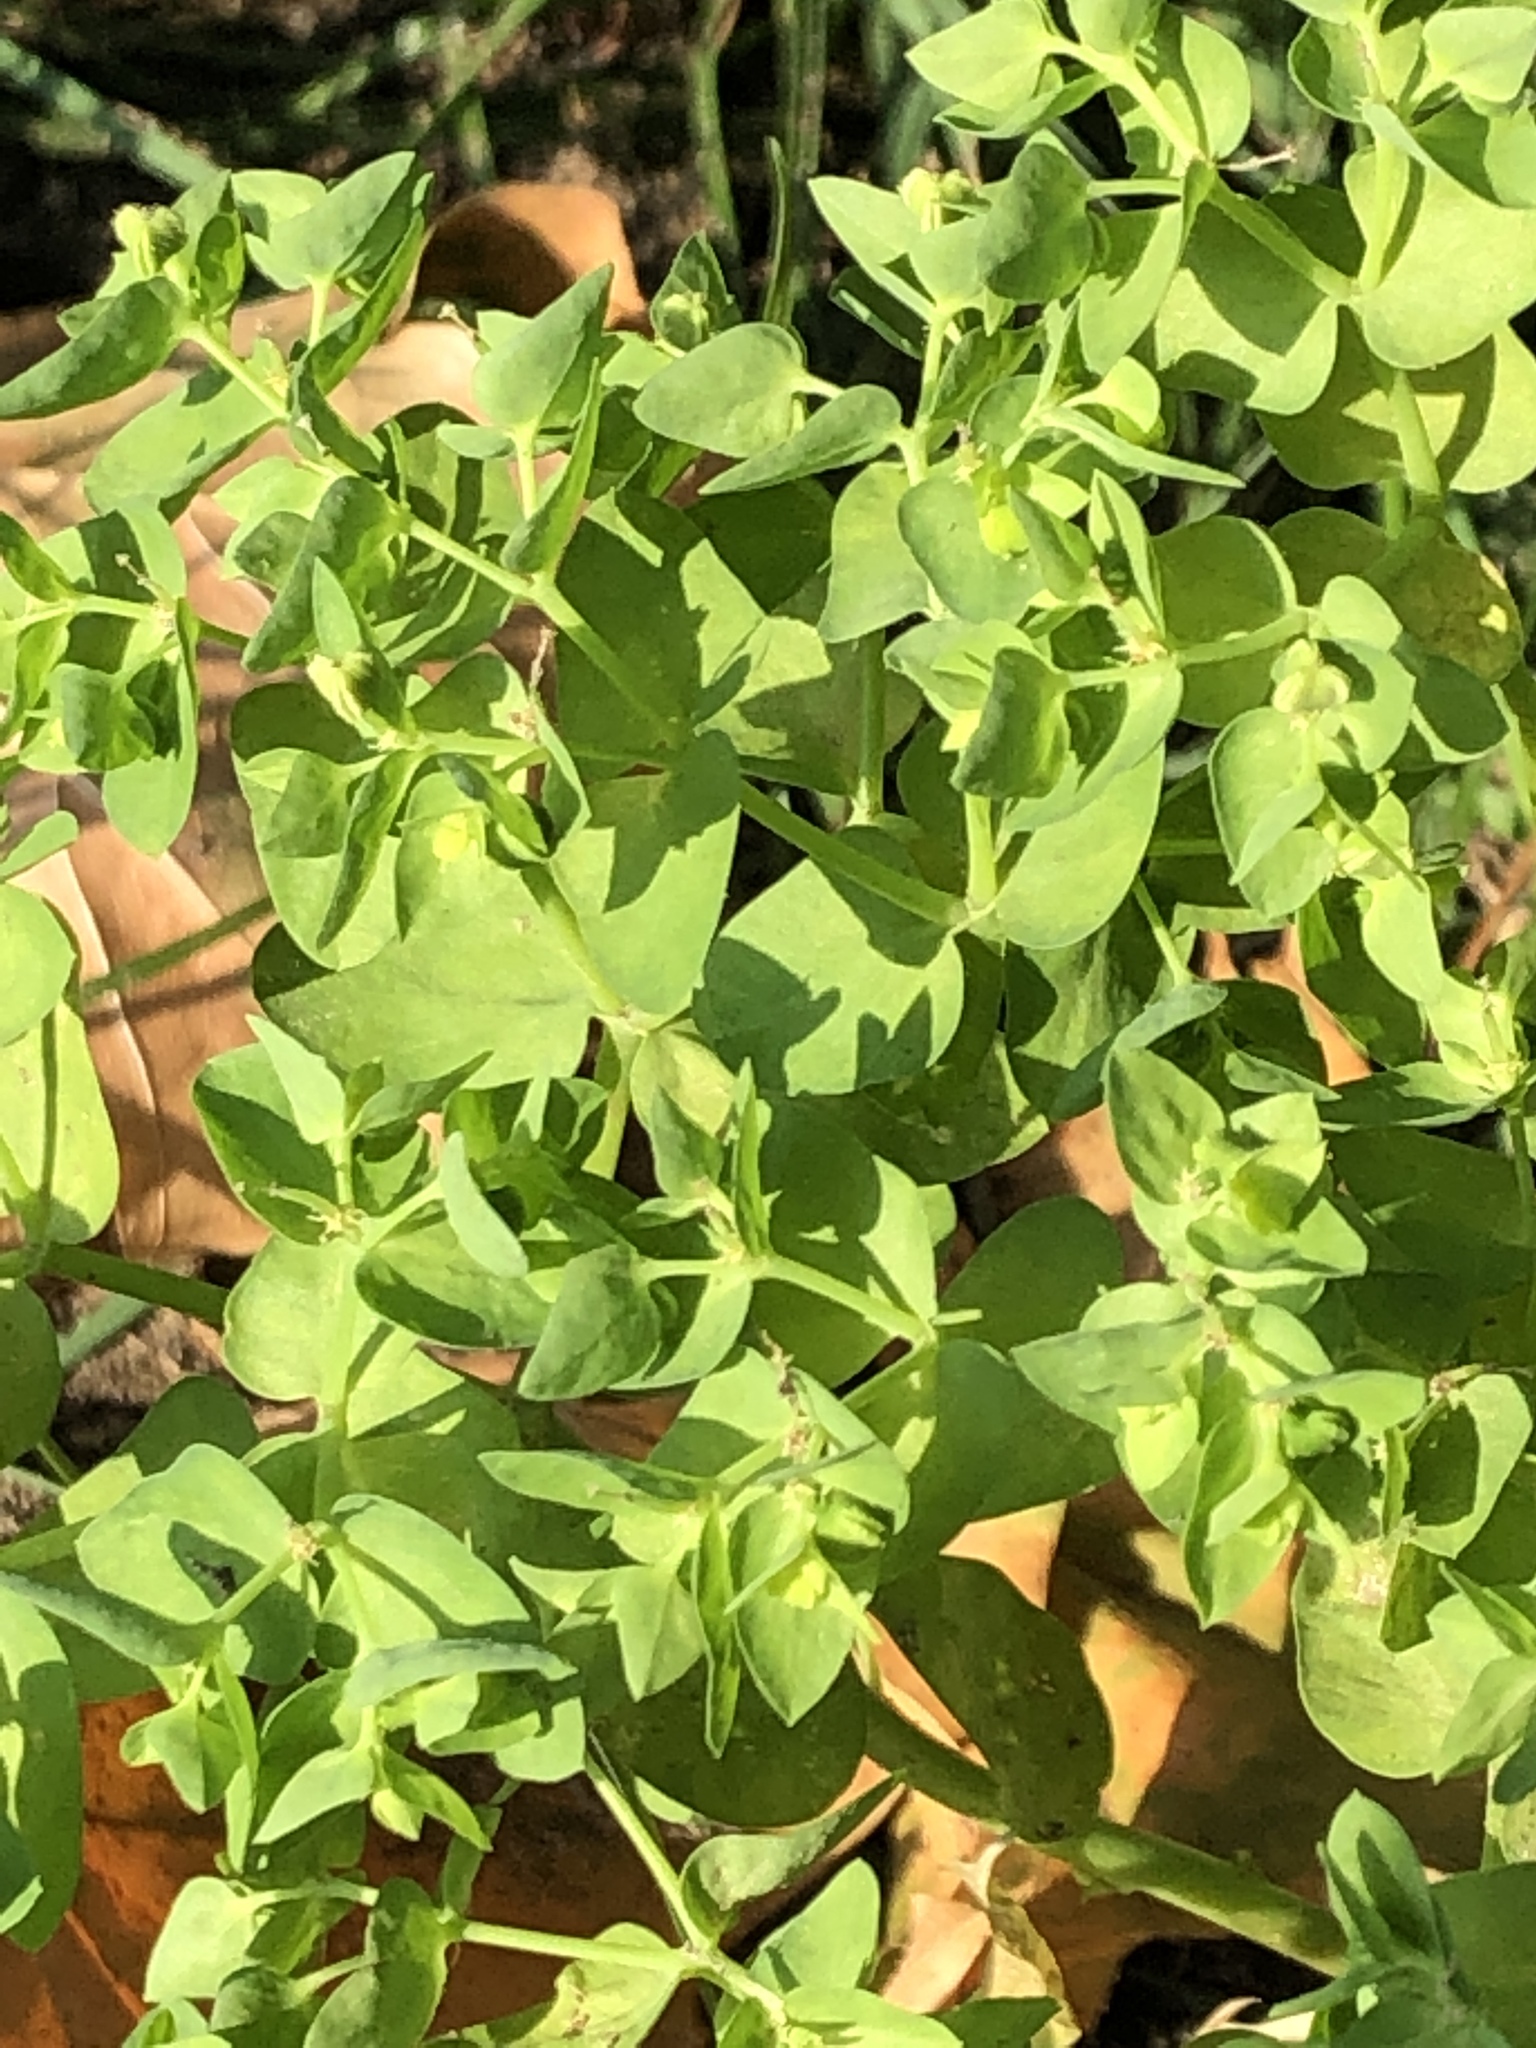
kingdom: Plantae
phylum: Tracheophyta
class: Magnoliopsida
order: Malpighiales
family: Euphorbiaceae
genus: Euphorbia
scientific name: Euphorbia peplus
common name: Petty spurge
